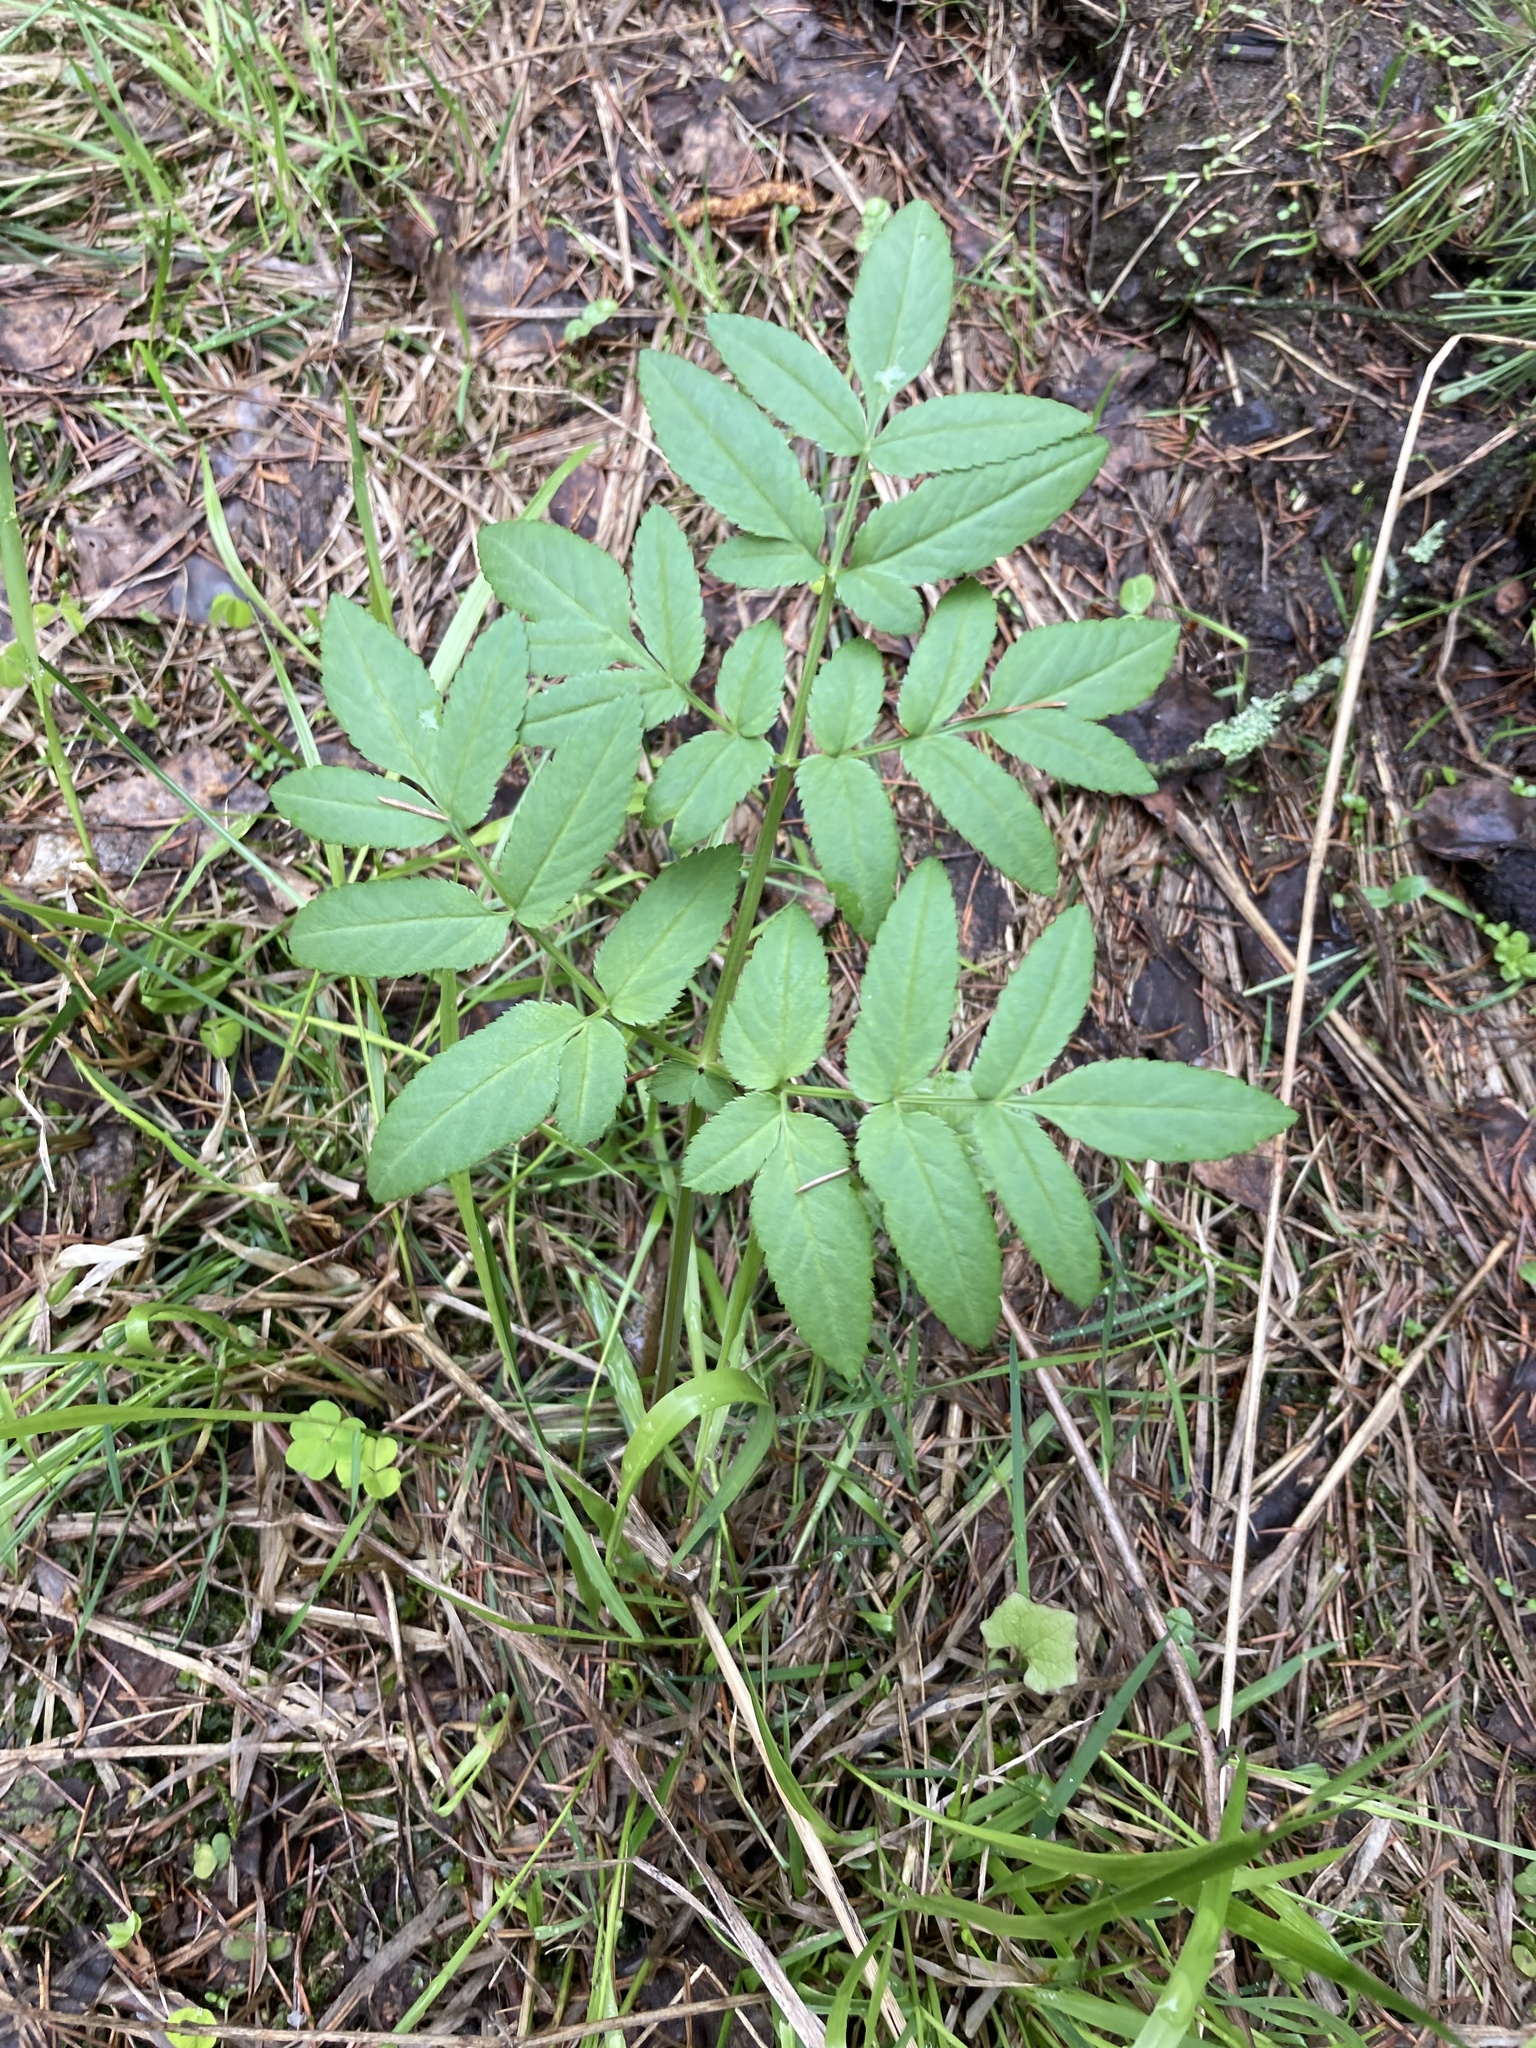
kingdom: Plantae
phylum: Tracheophyta
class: Magnoliopsida
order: Apiales
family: Apiaceae
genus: Angelica
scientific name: Angelica sylvestris
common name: Wild angelica
